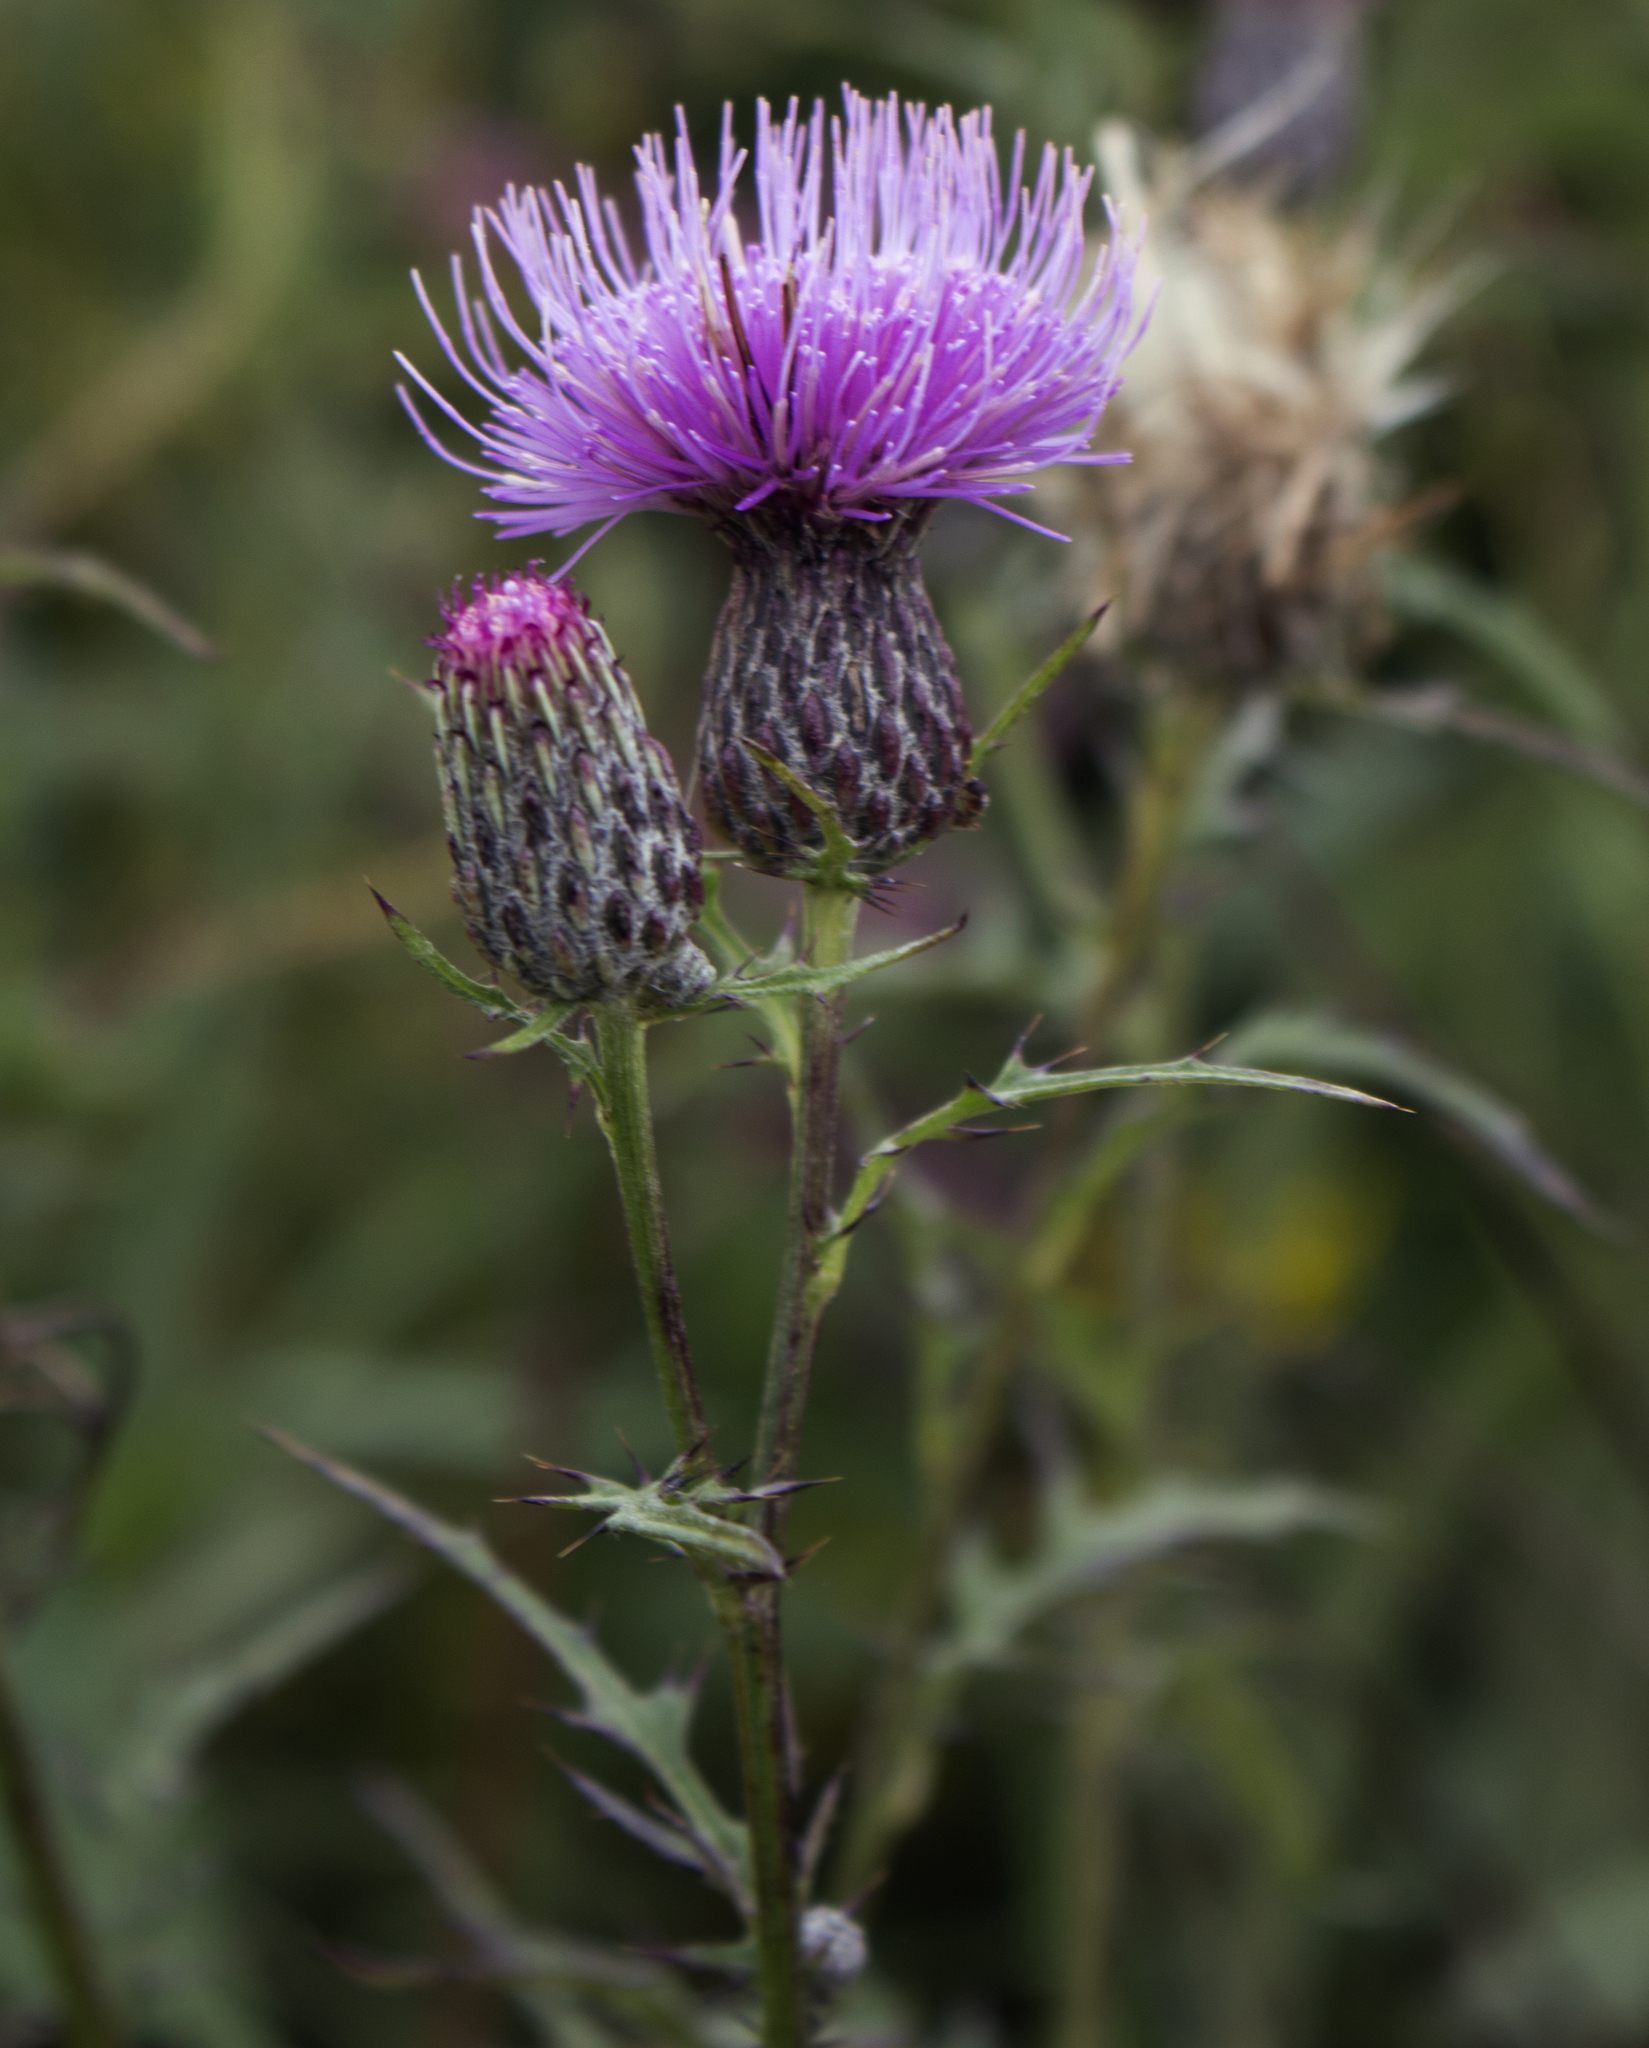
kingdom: Plantae
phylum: Tracheophyta
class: Magnoliopsida
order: Asterales
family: Asteraceae
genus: Cirsium
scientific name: Cirsium muticum
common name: Dunce-nettle
